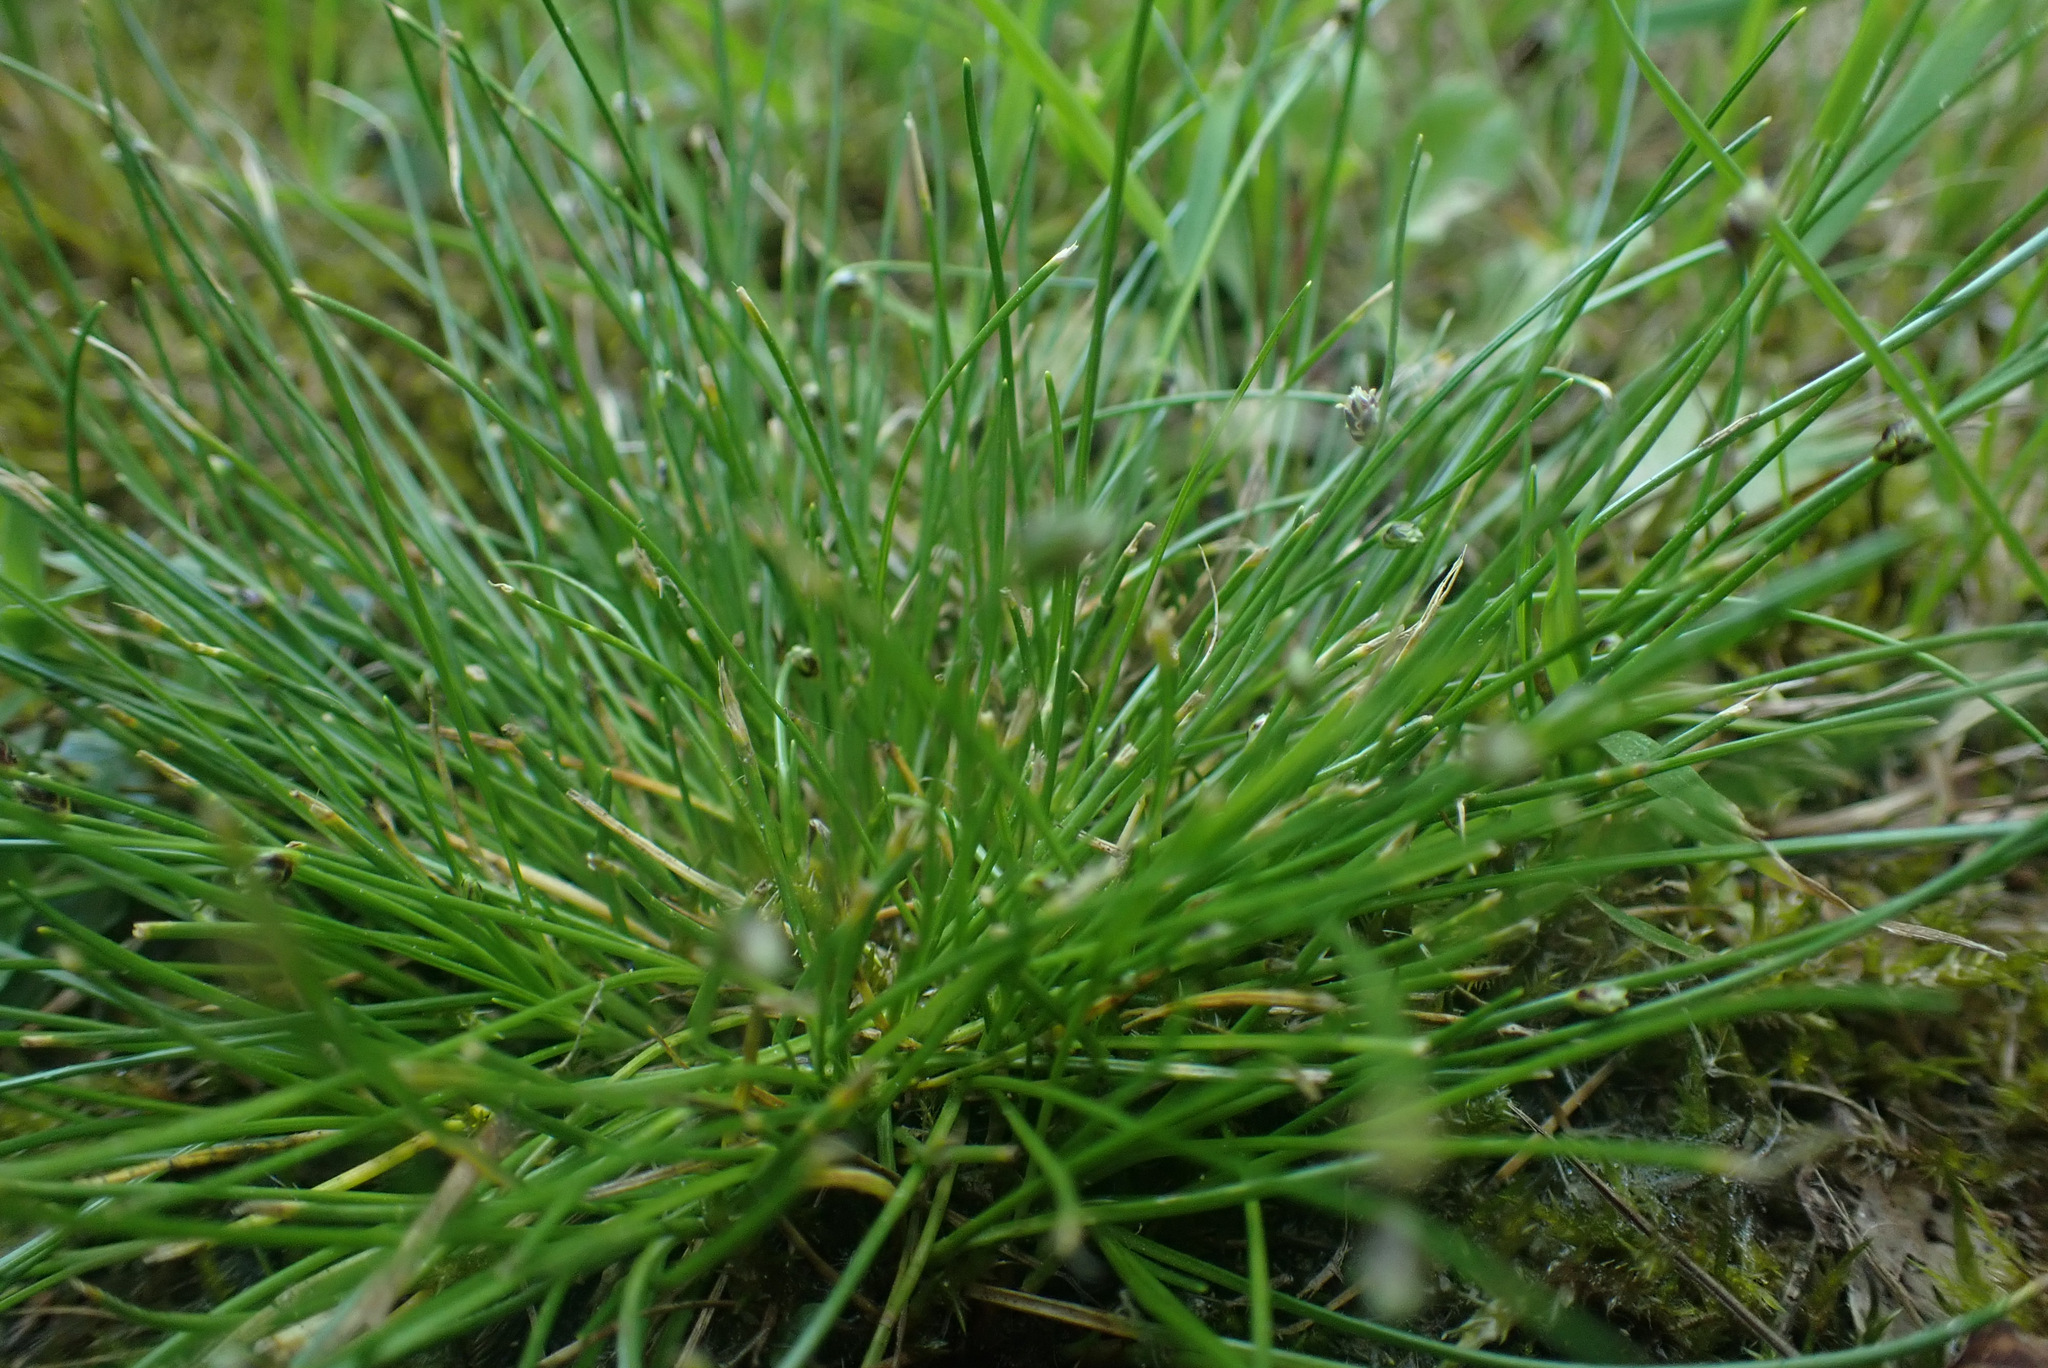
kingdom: Plantae
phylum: Tracheophyta
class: Liliopsida
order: Poales
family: Cyperaceae
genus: Isolepis
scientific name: Isolepis setacea
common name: Bristle club-rush
